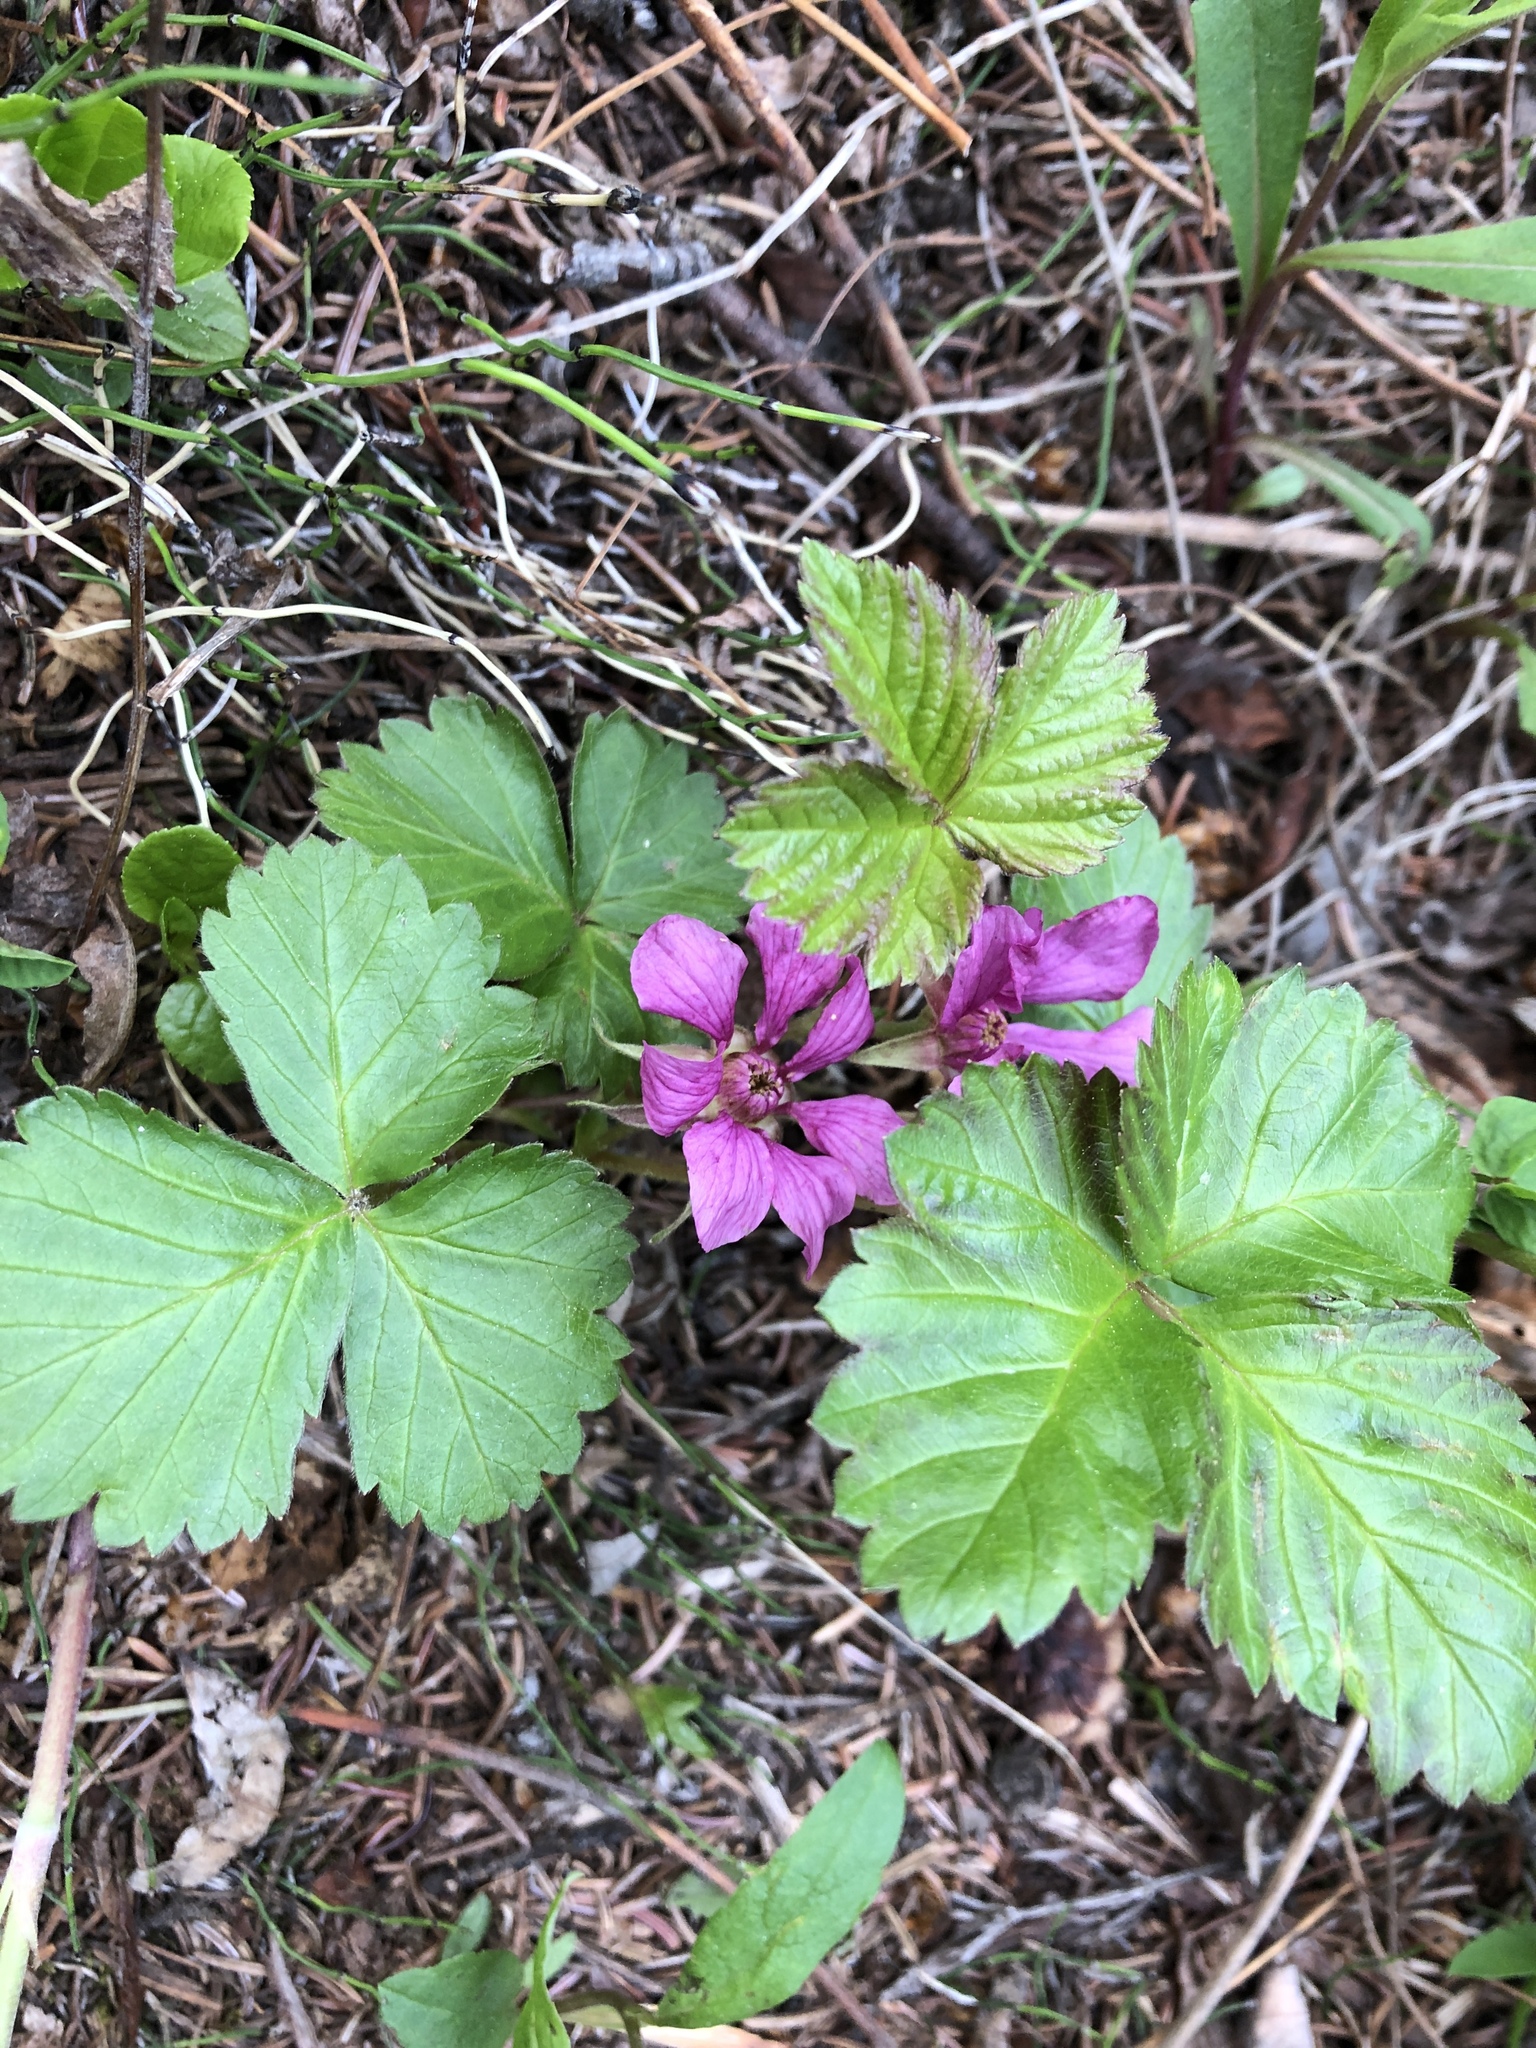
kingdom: Plantae
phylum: Tracheophyta
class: Magnoliopsida
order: Rosales
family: Rosaceae
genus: Rubus
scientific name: Rubus arcticus
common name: Arctic bramble
